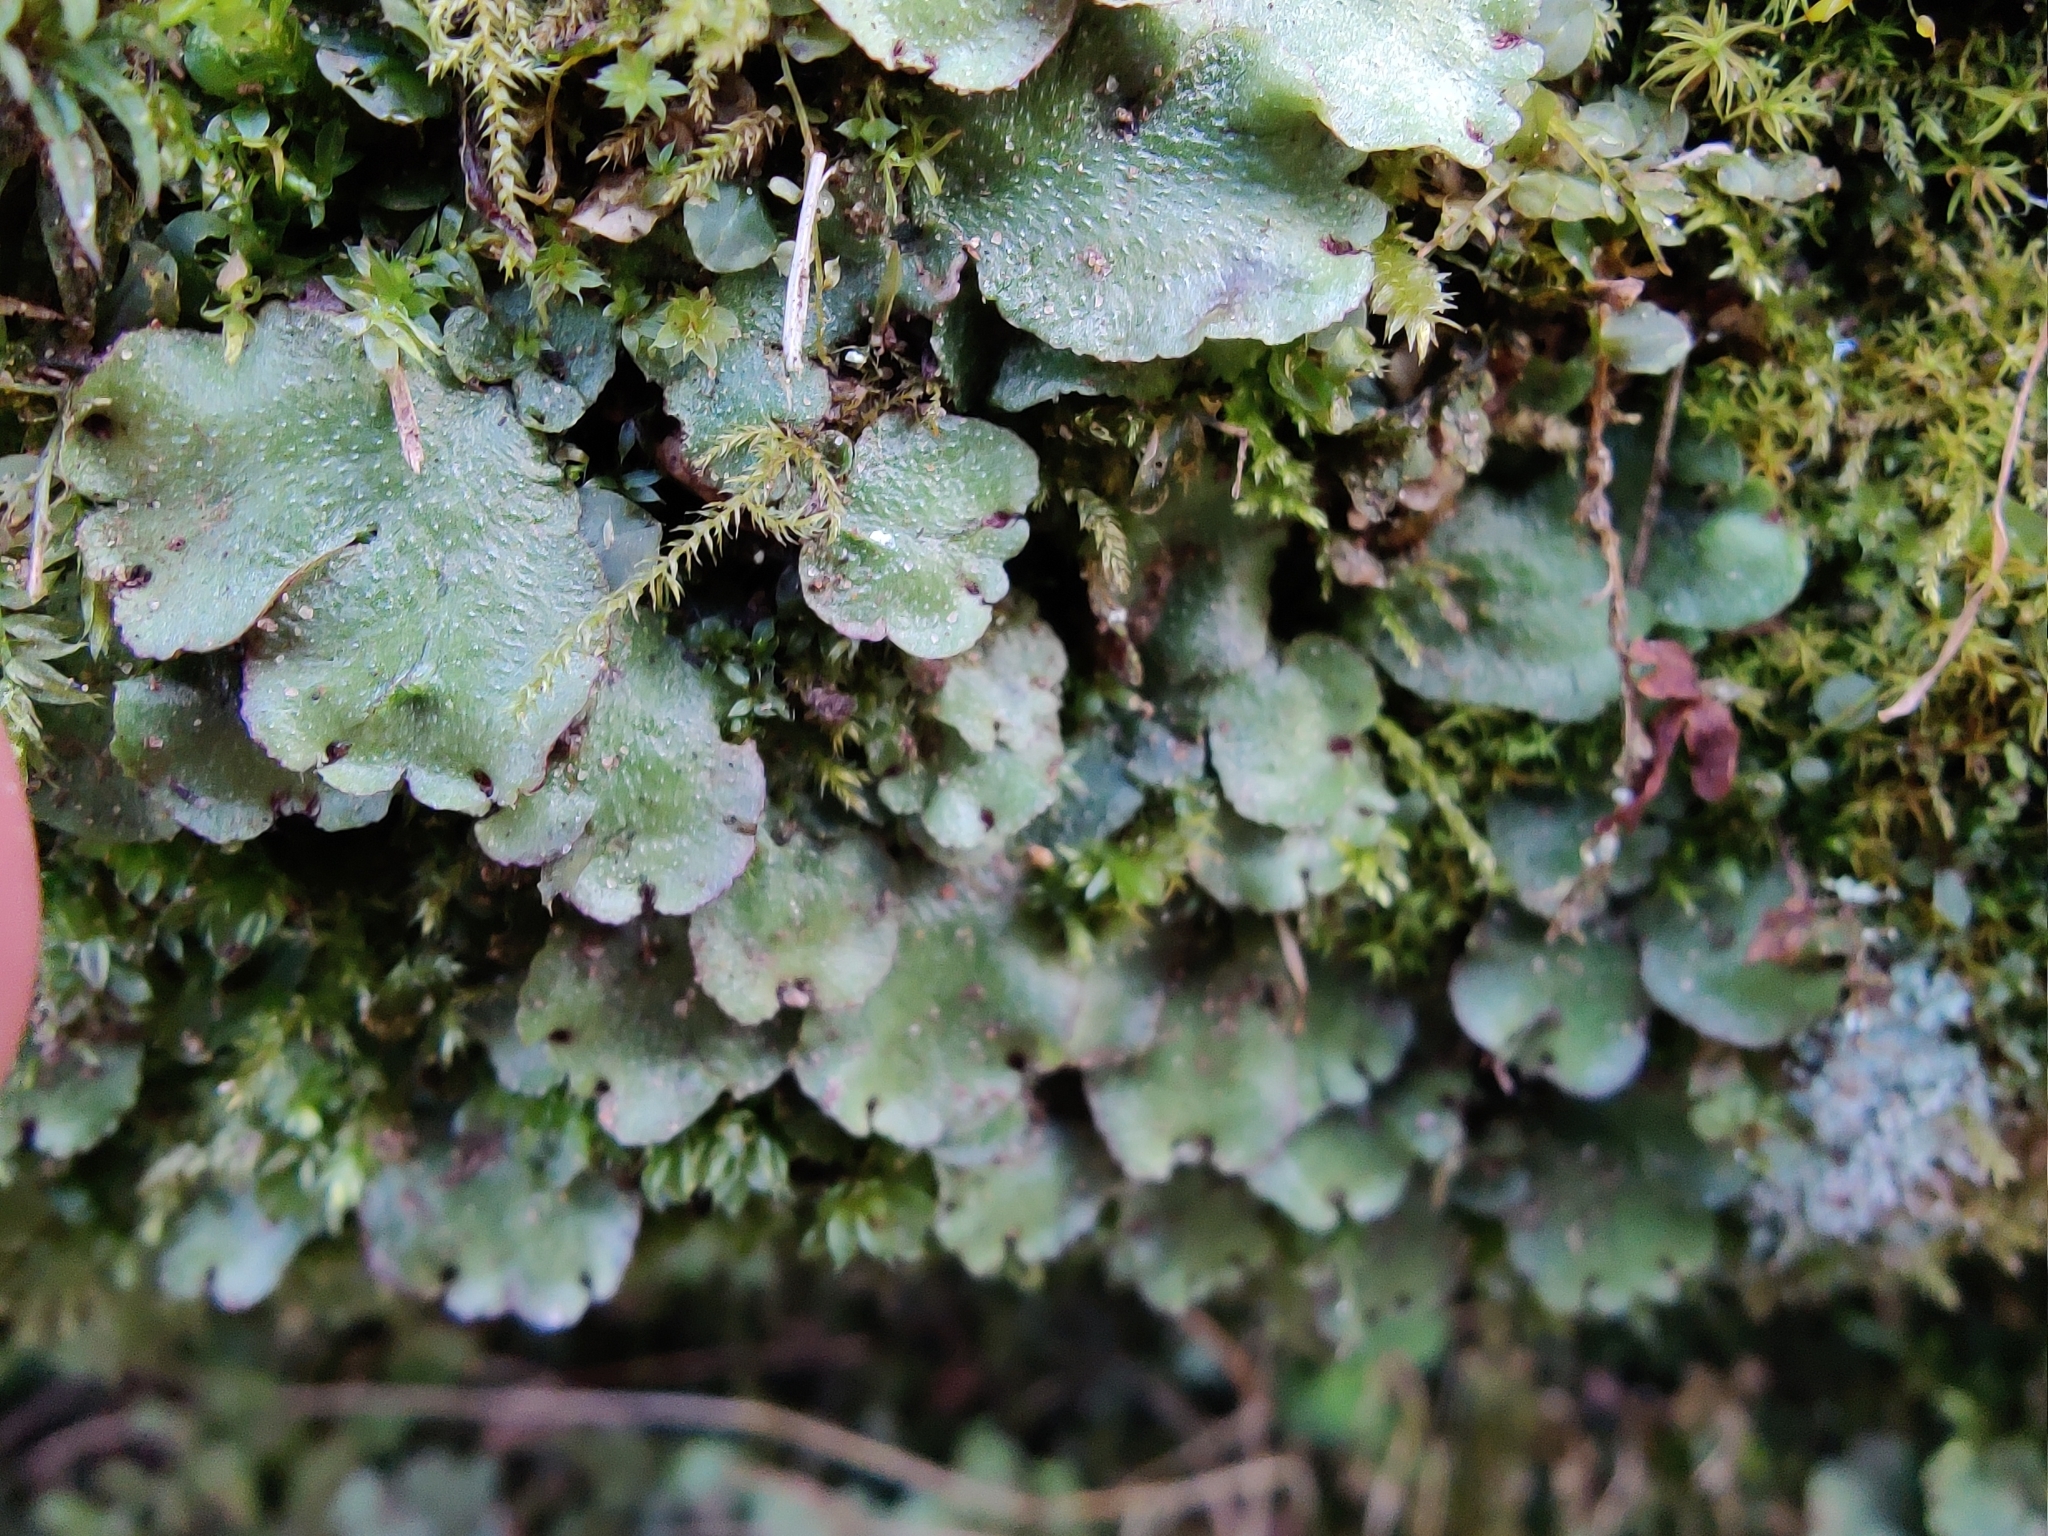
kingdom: Plantae
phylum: Marchantiophyta
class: Marchantiopsida
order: Marchantiales
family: Aytoniaceae
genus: Reboulia
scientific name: Reboulia hemisphaerica
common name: Purple-margined liverwort
